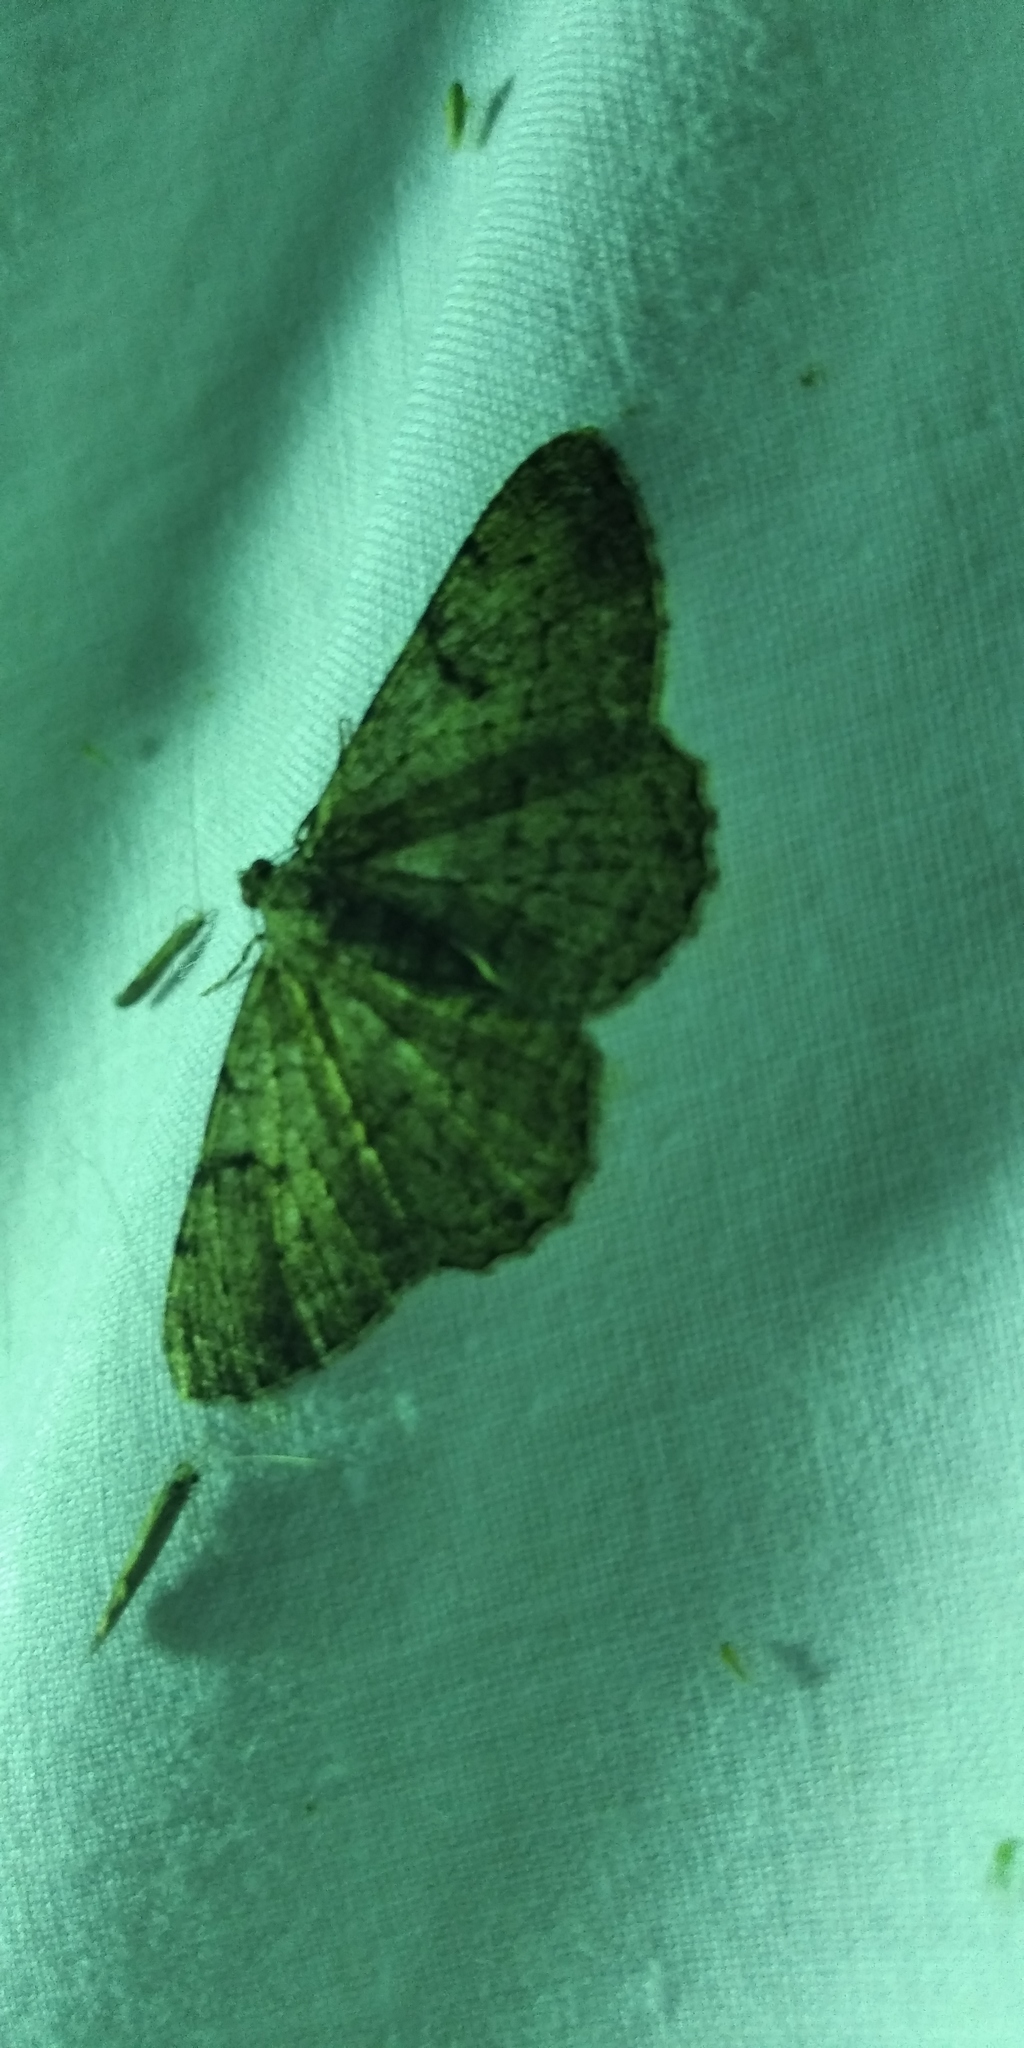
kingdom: Animalia
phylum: Arthropoda
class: Insecta
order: Lepidoptera
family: Geometridae
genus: Peribatodes
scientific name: Peribatodes rhomboidaria
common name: Willow beauty
